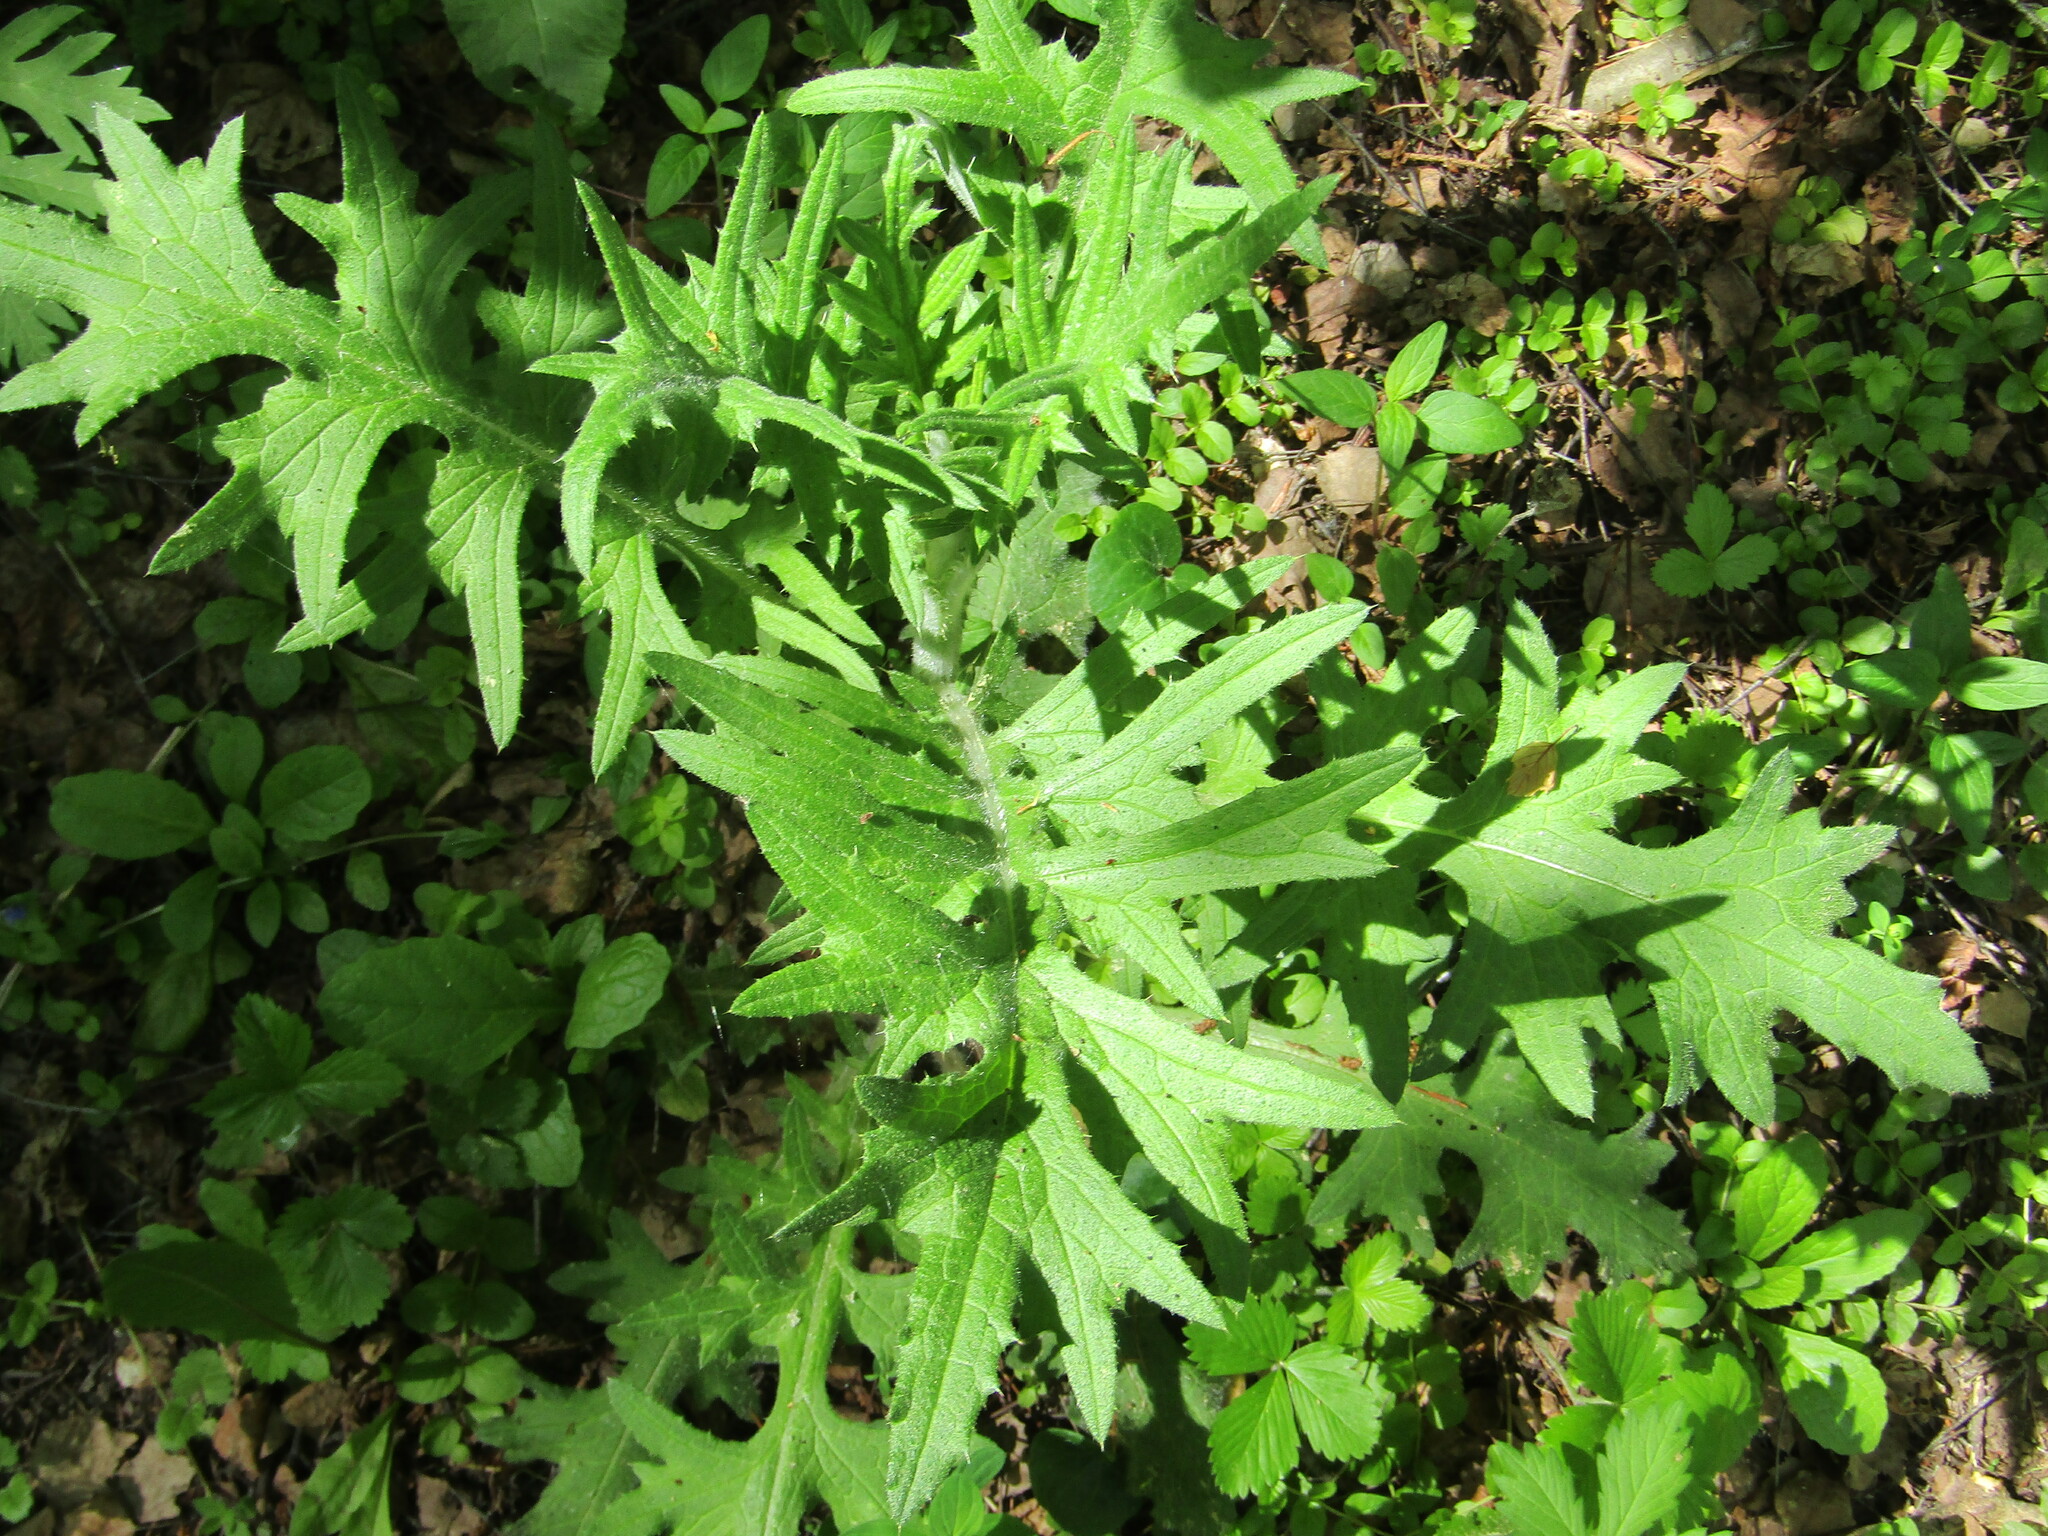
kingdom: Plantae
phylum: Tracheophyta
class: Magnoliopsida
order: Asterales
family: Asteraceae
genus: Cirsium
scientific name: Cirsium vulgare
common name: Bull thistle
